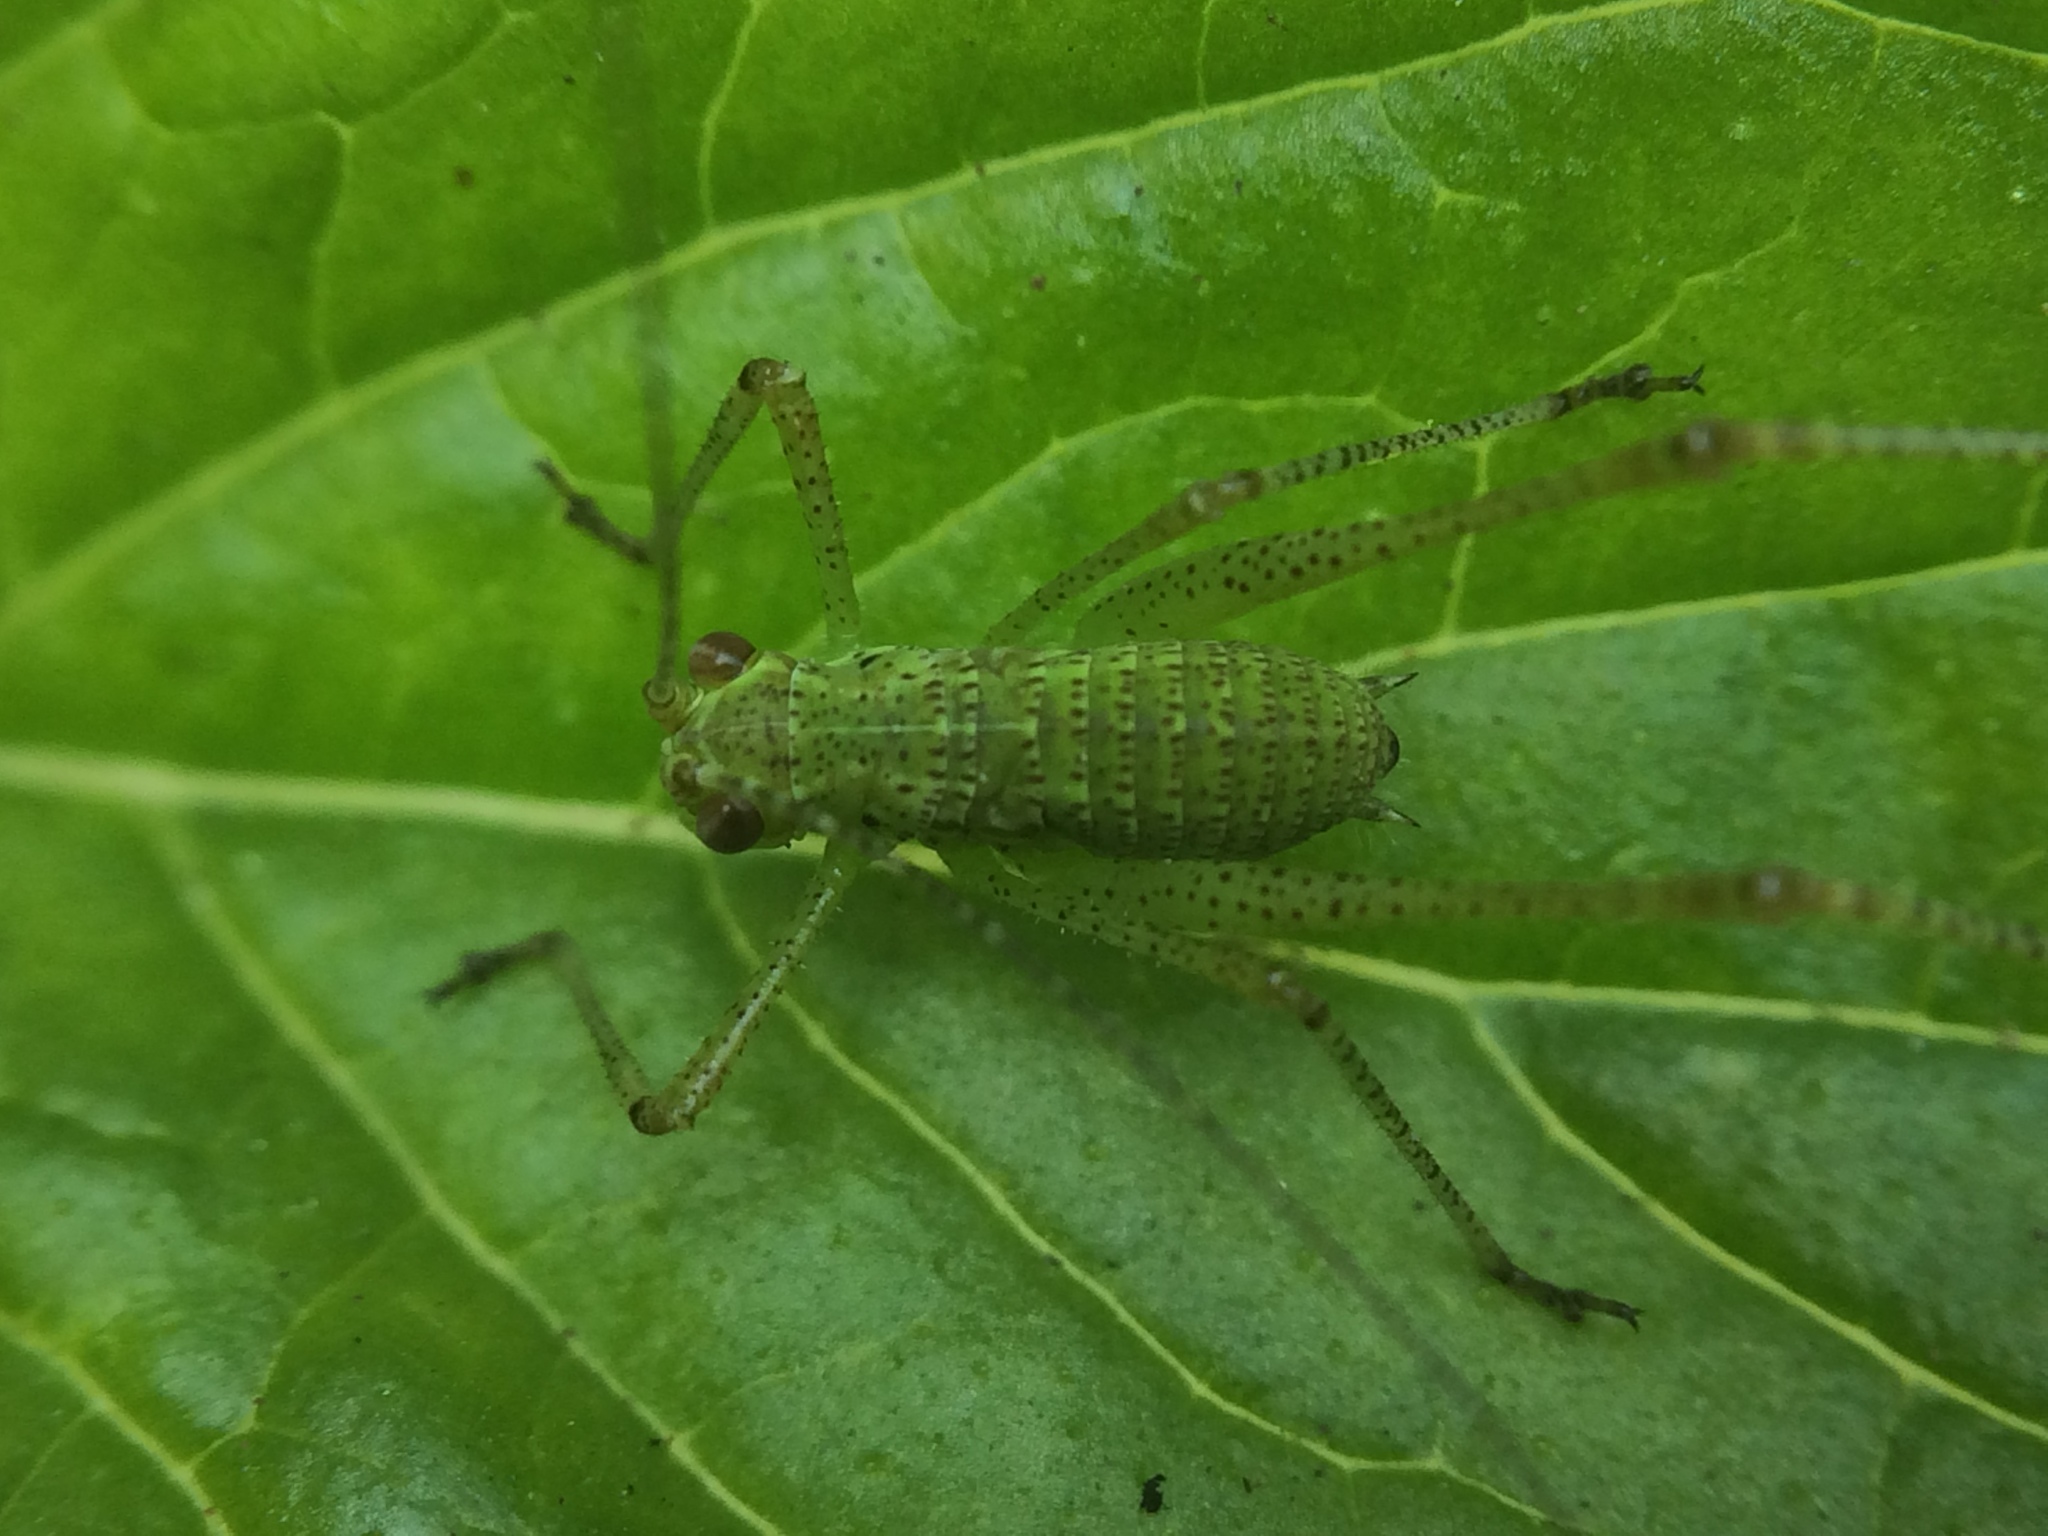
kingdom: Animalia
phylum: Arthropoda
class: Insecta
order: Orthoptera
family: Tettigoniidae
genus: Phaneroptera
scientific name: Phaneroptera nana
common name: Southern sickle bush-cricket
